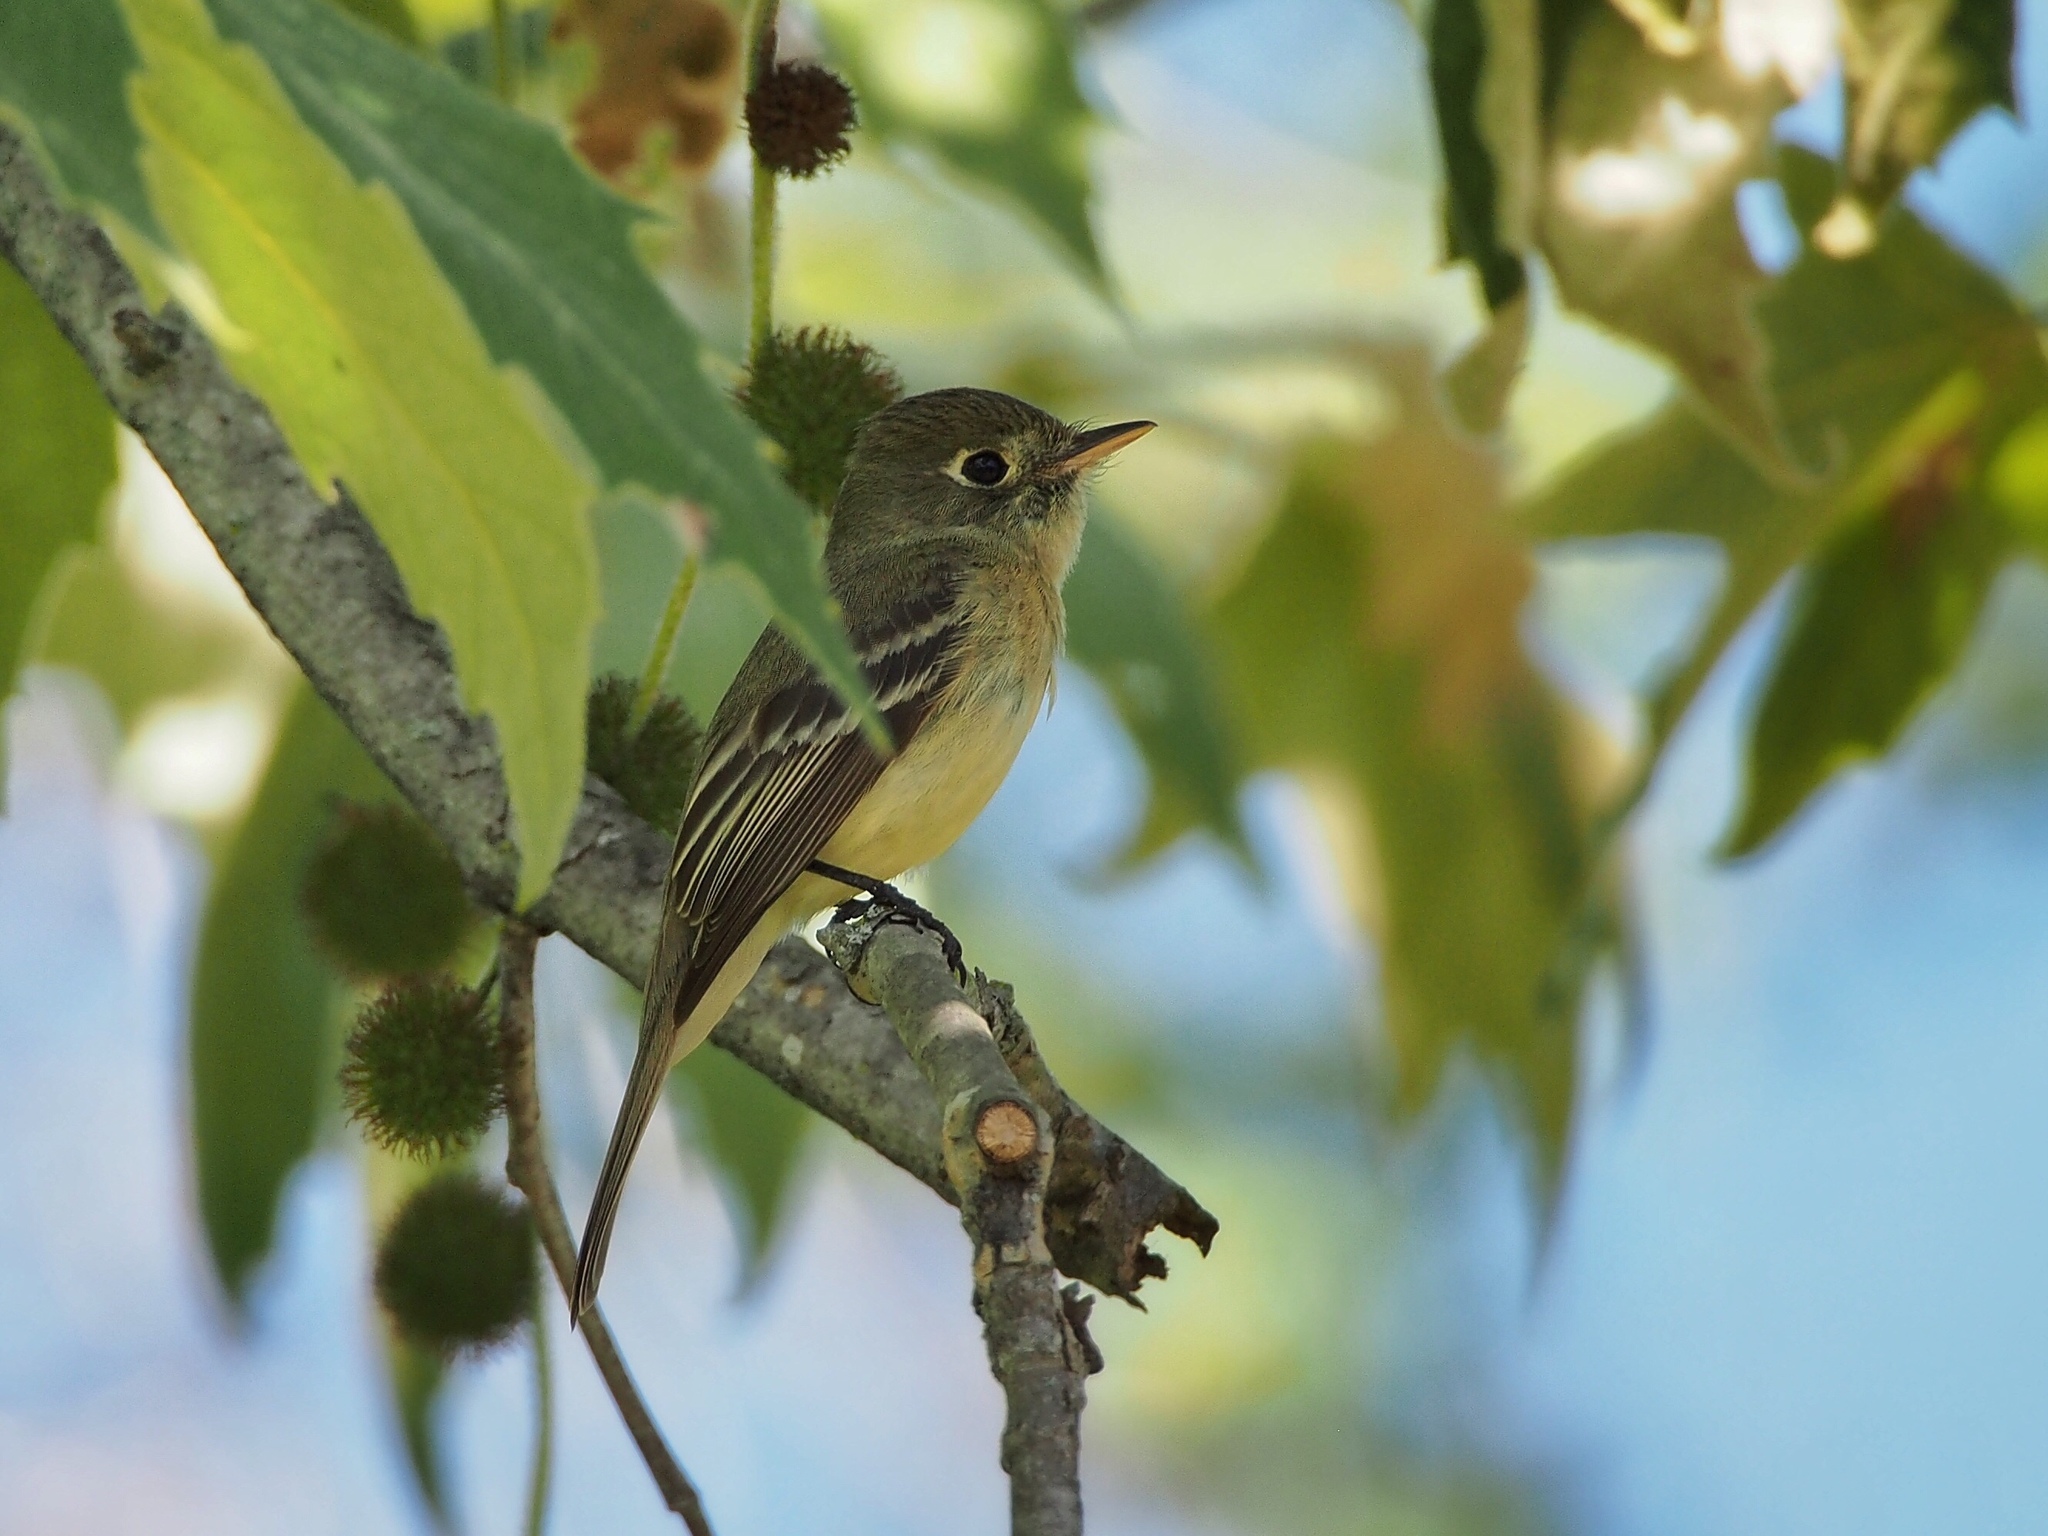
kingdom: Animalia
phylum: Chordata
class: Aves
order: Passeriformes
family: Tyrannidae
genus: Empidonax
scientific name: Empidonax difficilis
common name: Pacific-slope flycatcher
